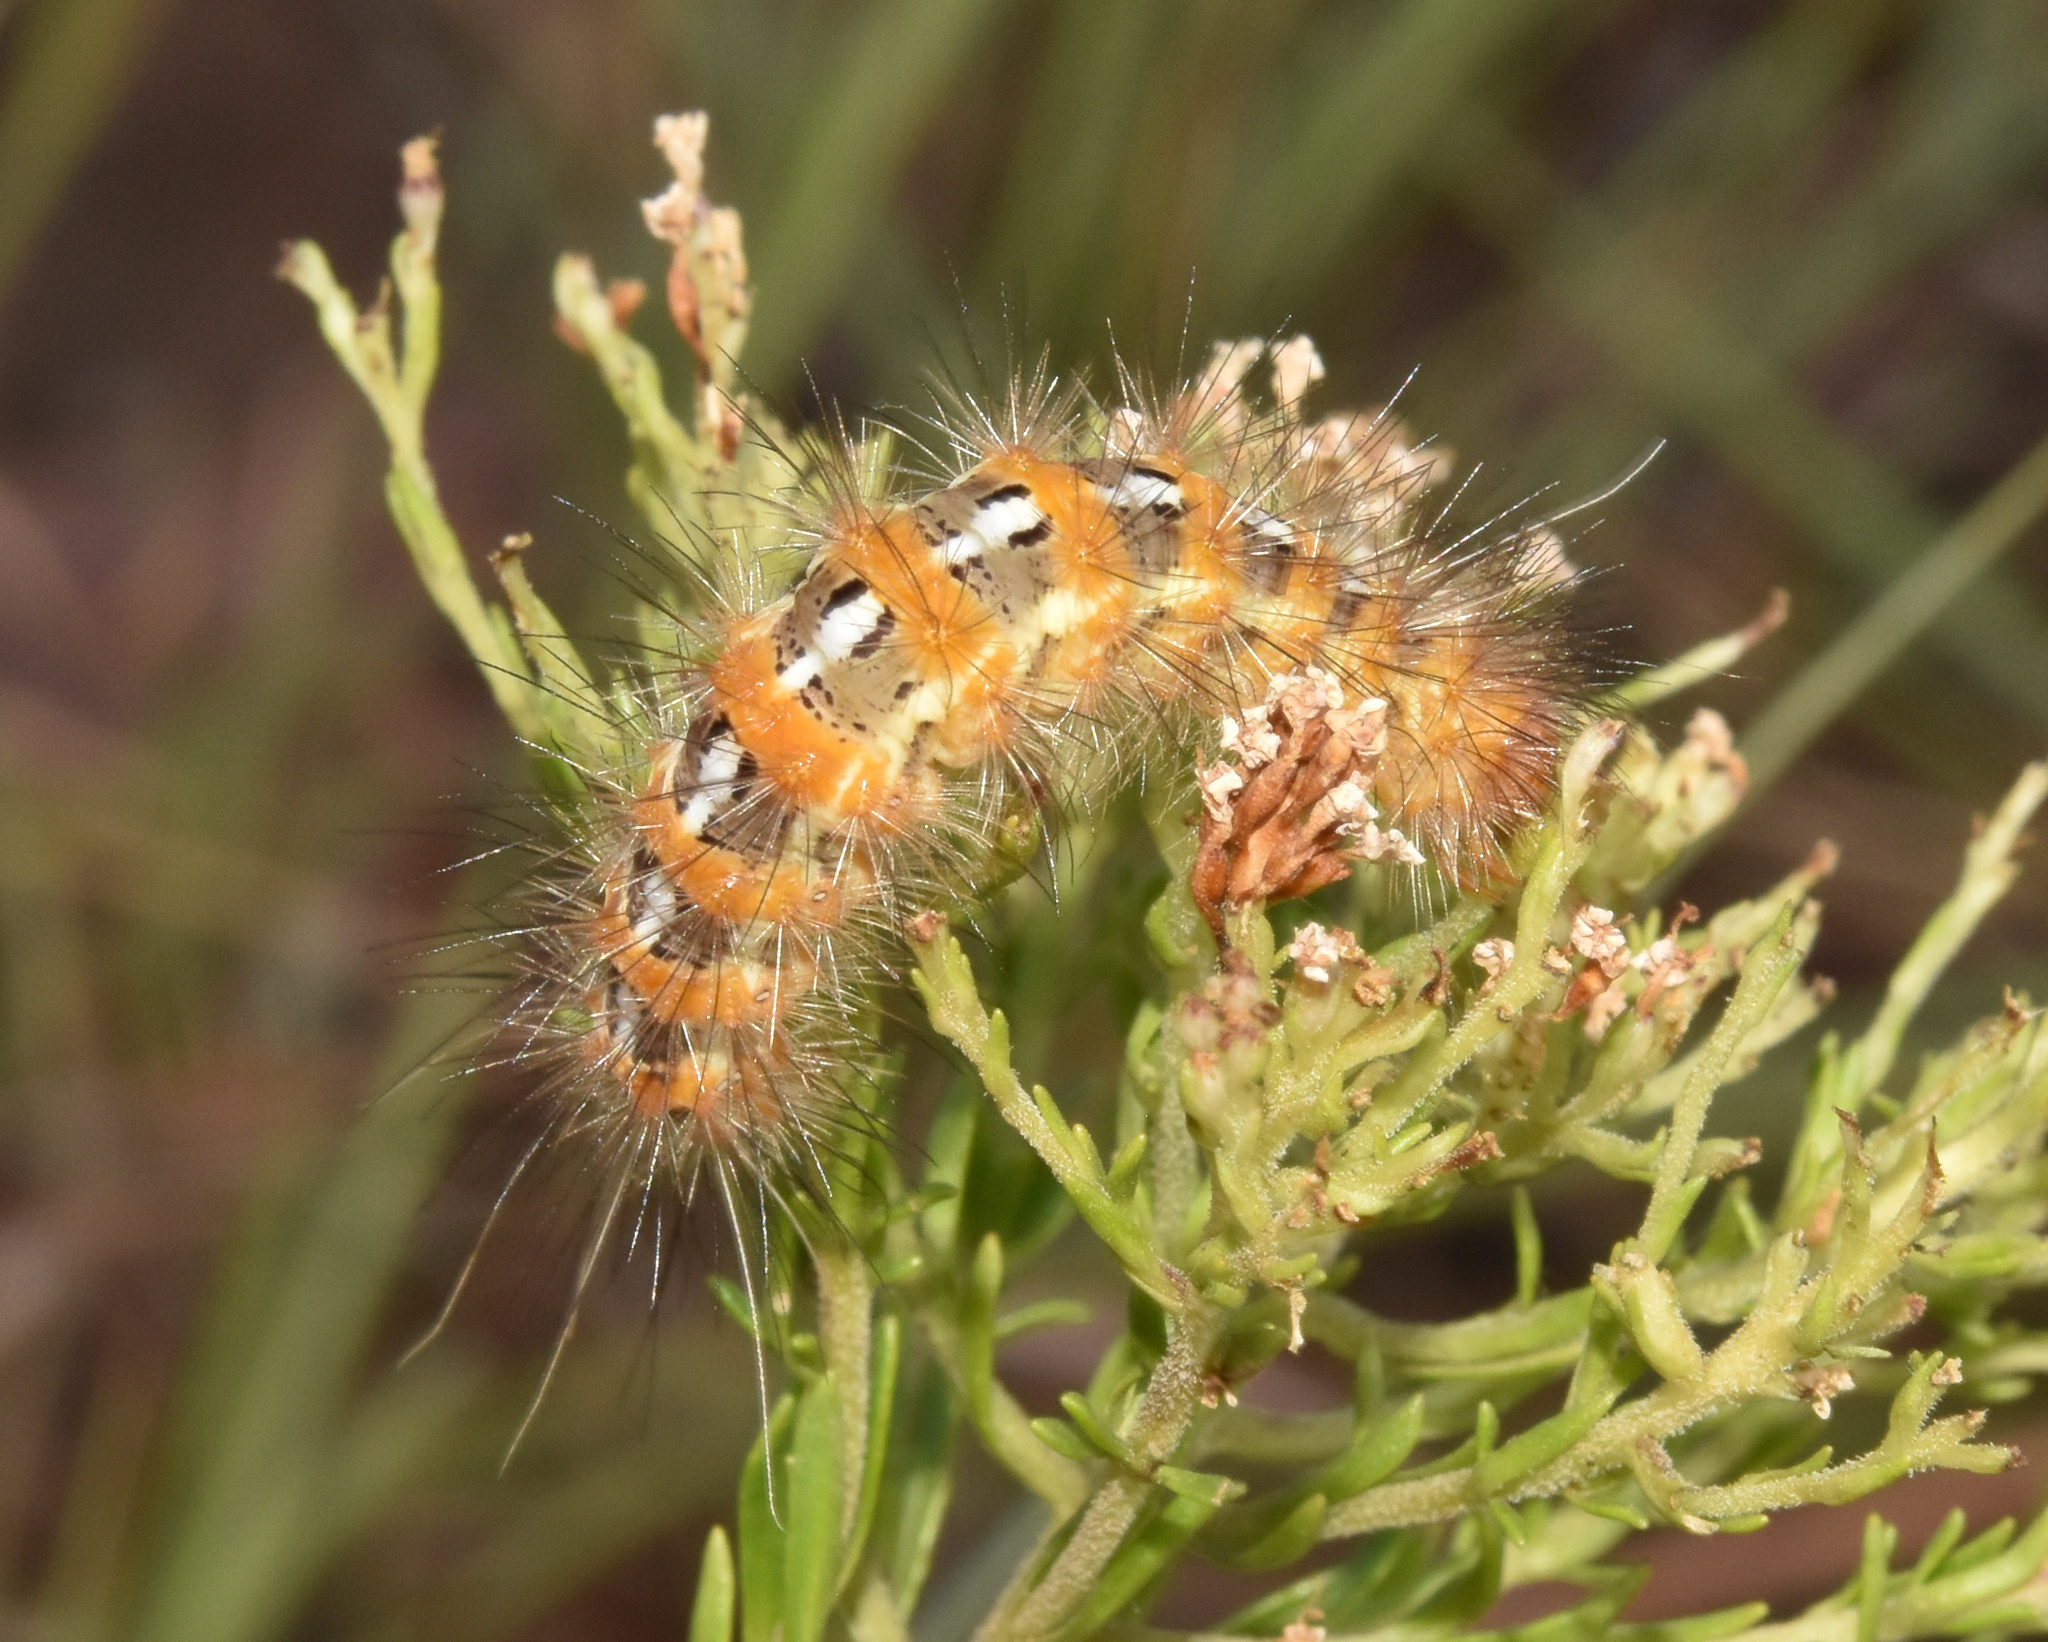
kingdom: Animalia
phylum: Arthropoda
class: Insecta
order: Lepidoptera
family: Erebidae
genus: Saenura
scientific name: Saenura flava
